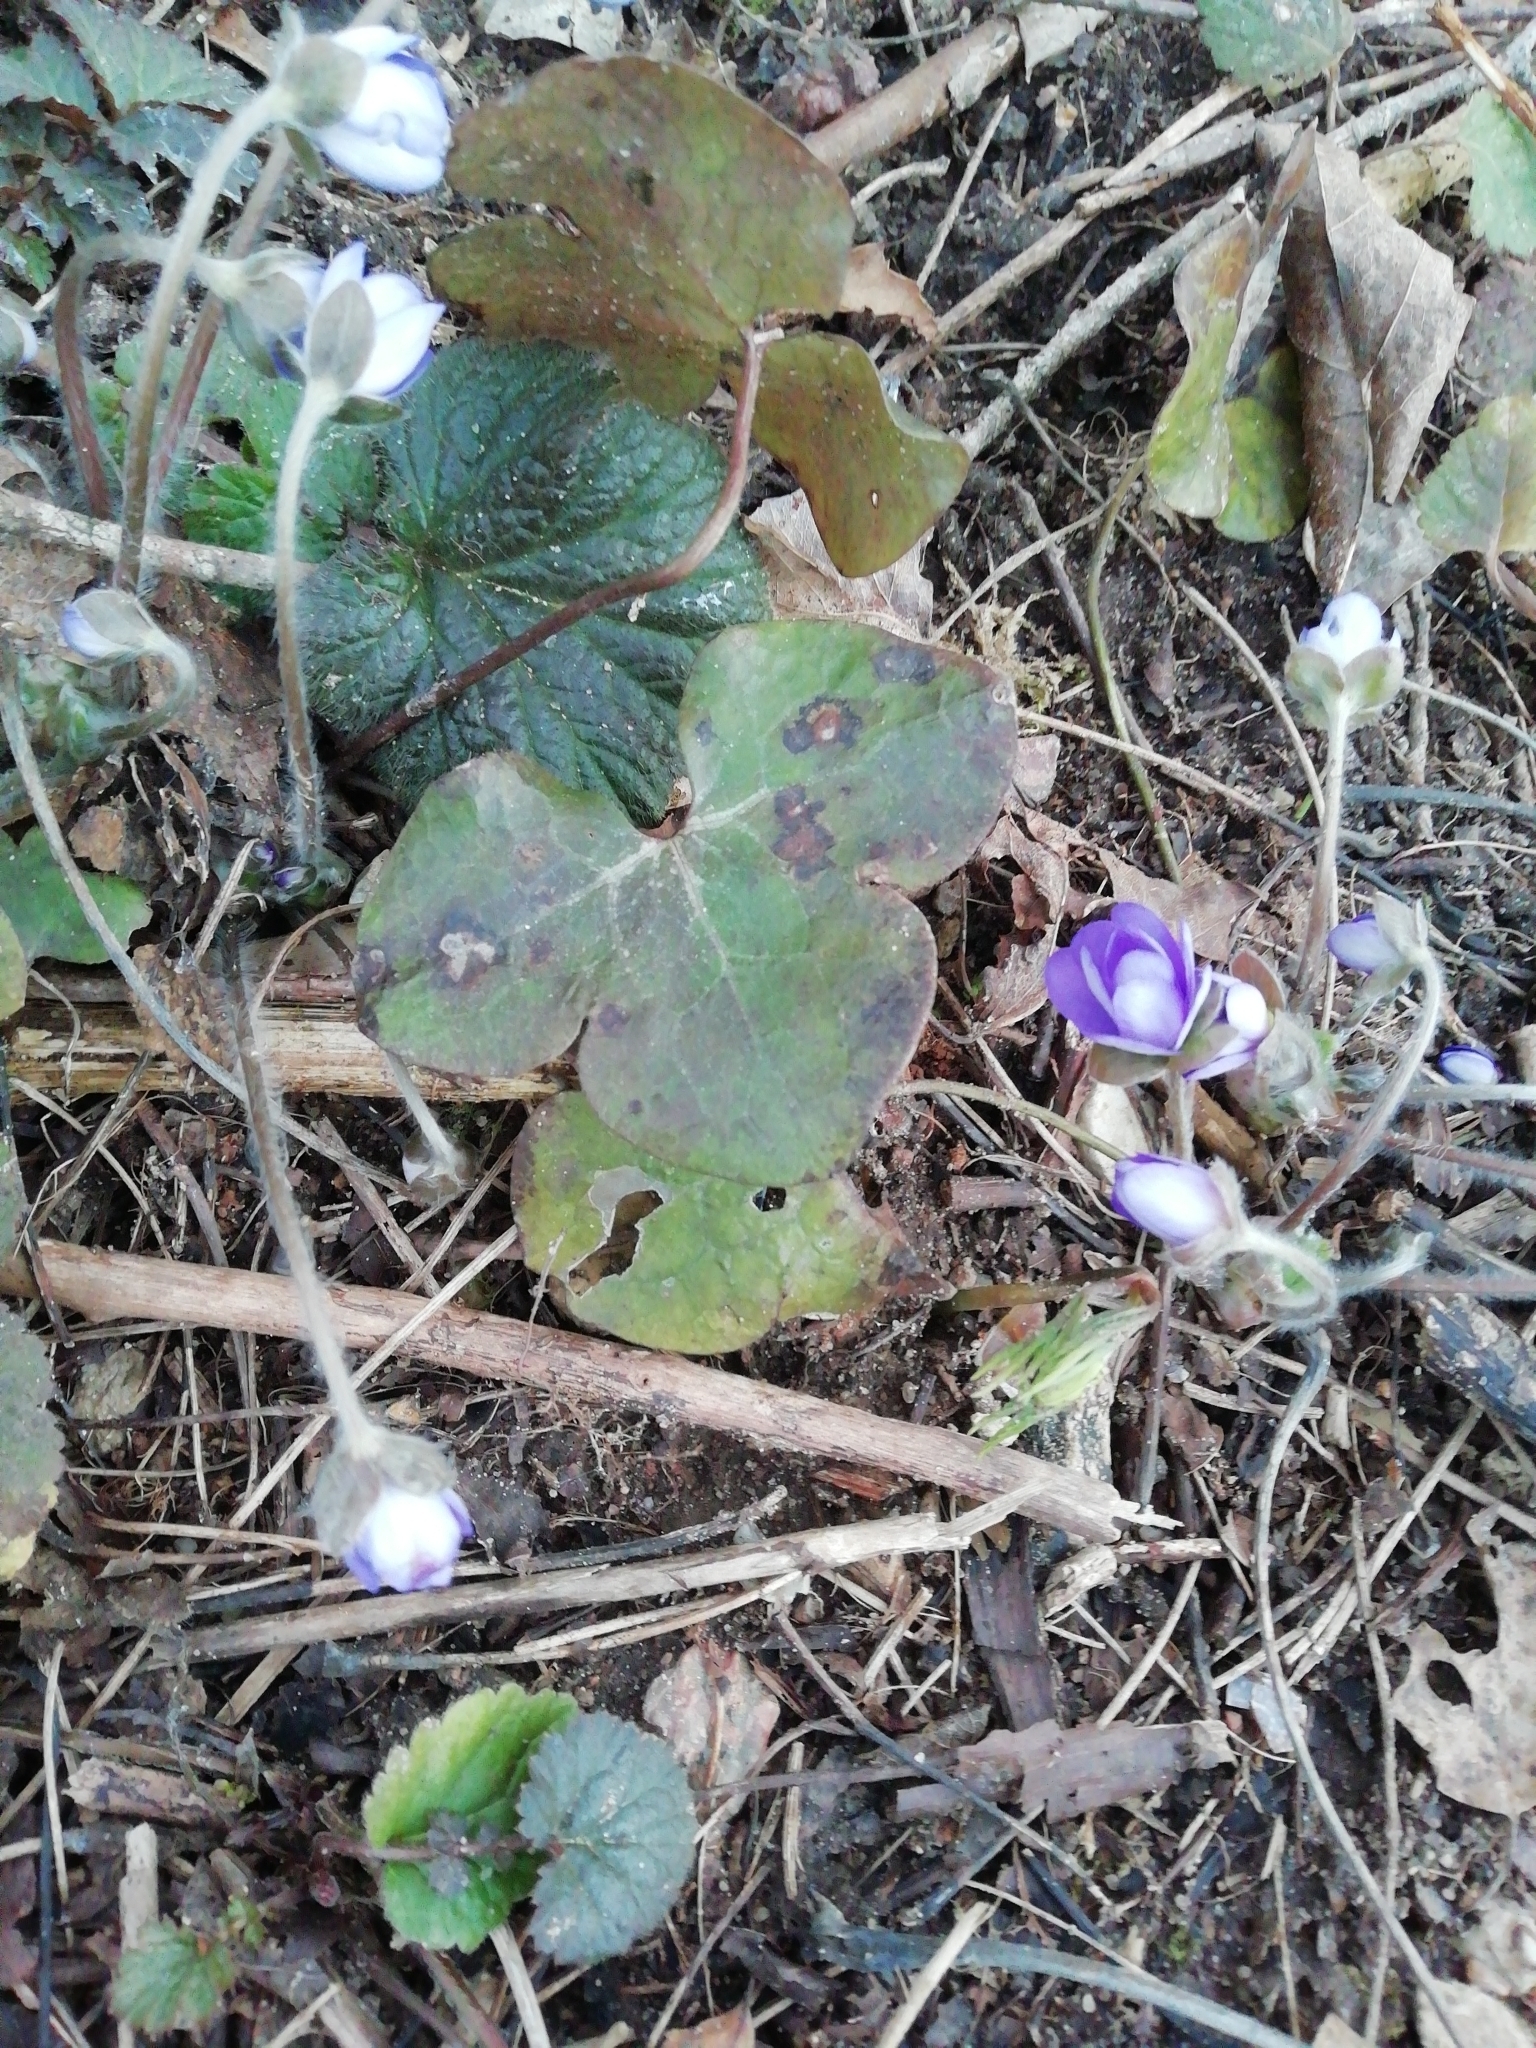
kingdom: Plantae
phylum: Tracheophyta
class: Magnoliopsida
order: Ranunculales
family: Ranunculaceae
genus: Hepatica
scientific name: Hepatica nobilis
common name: Liverleaf
